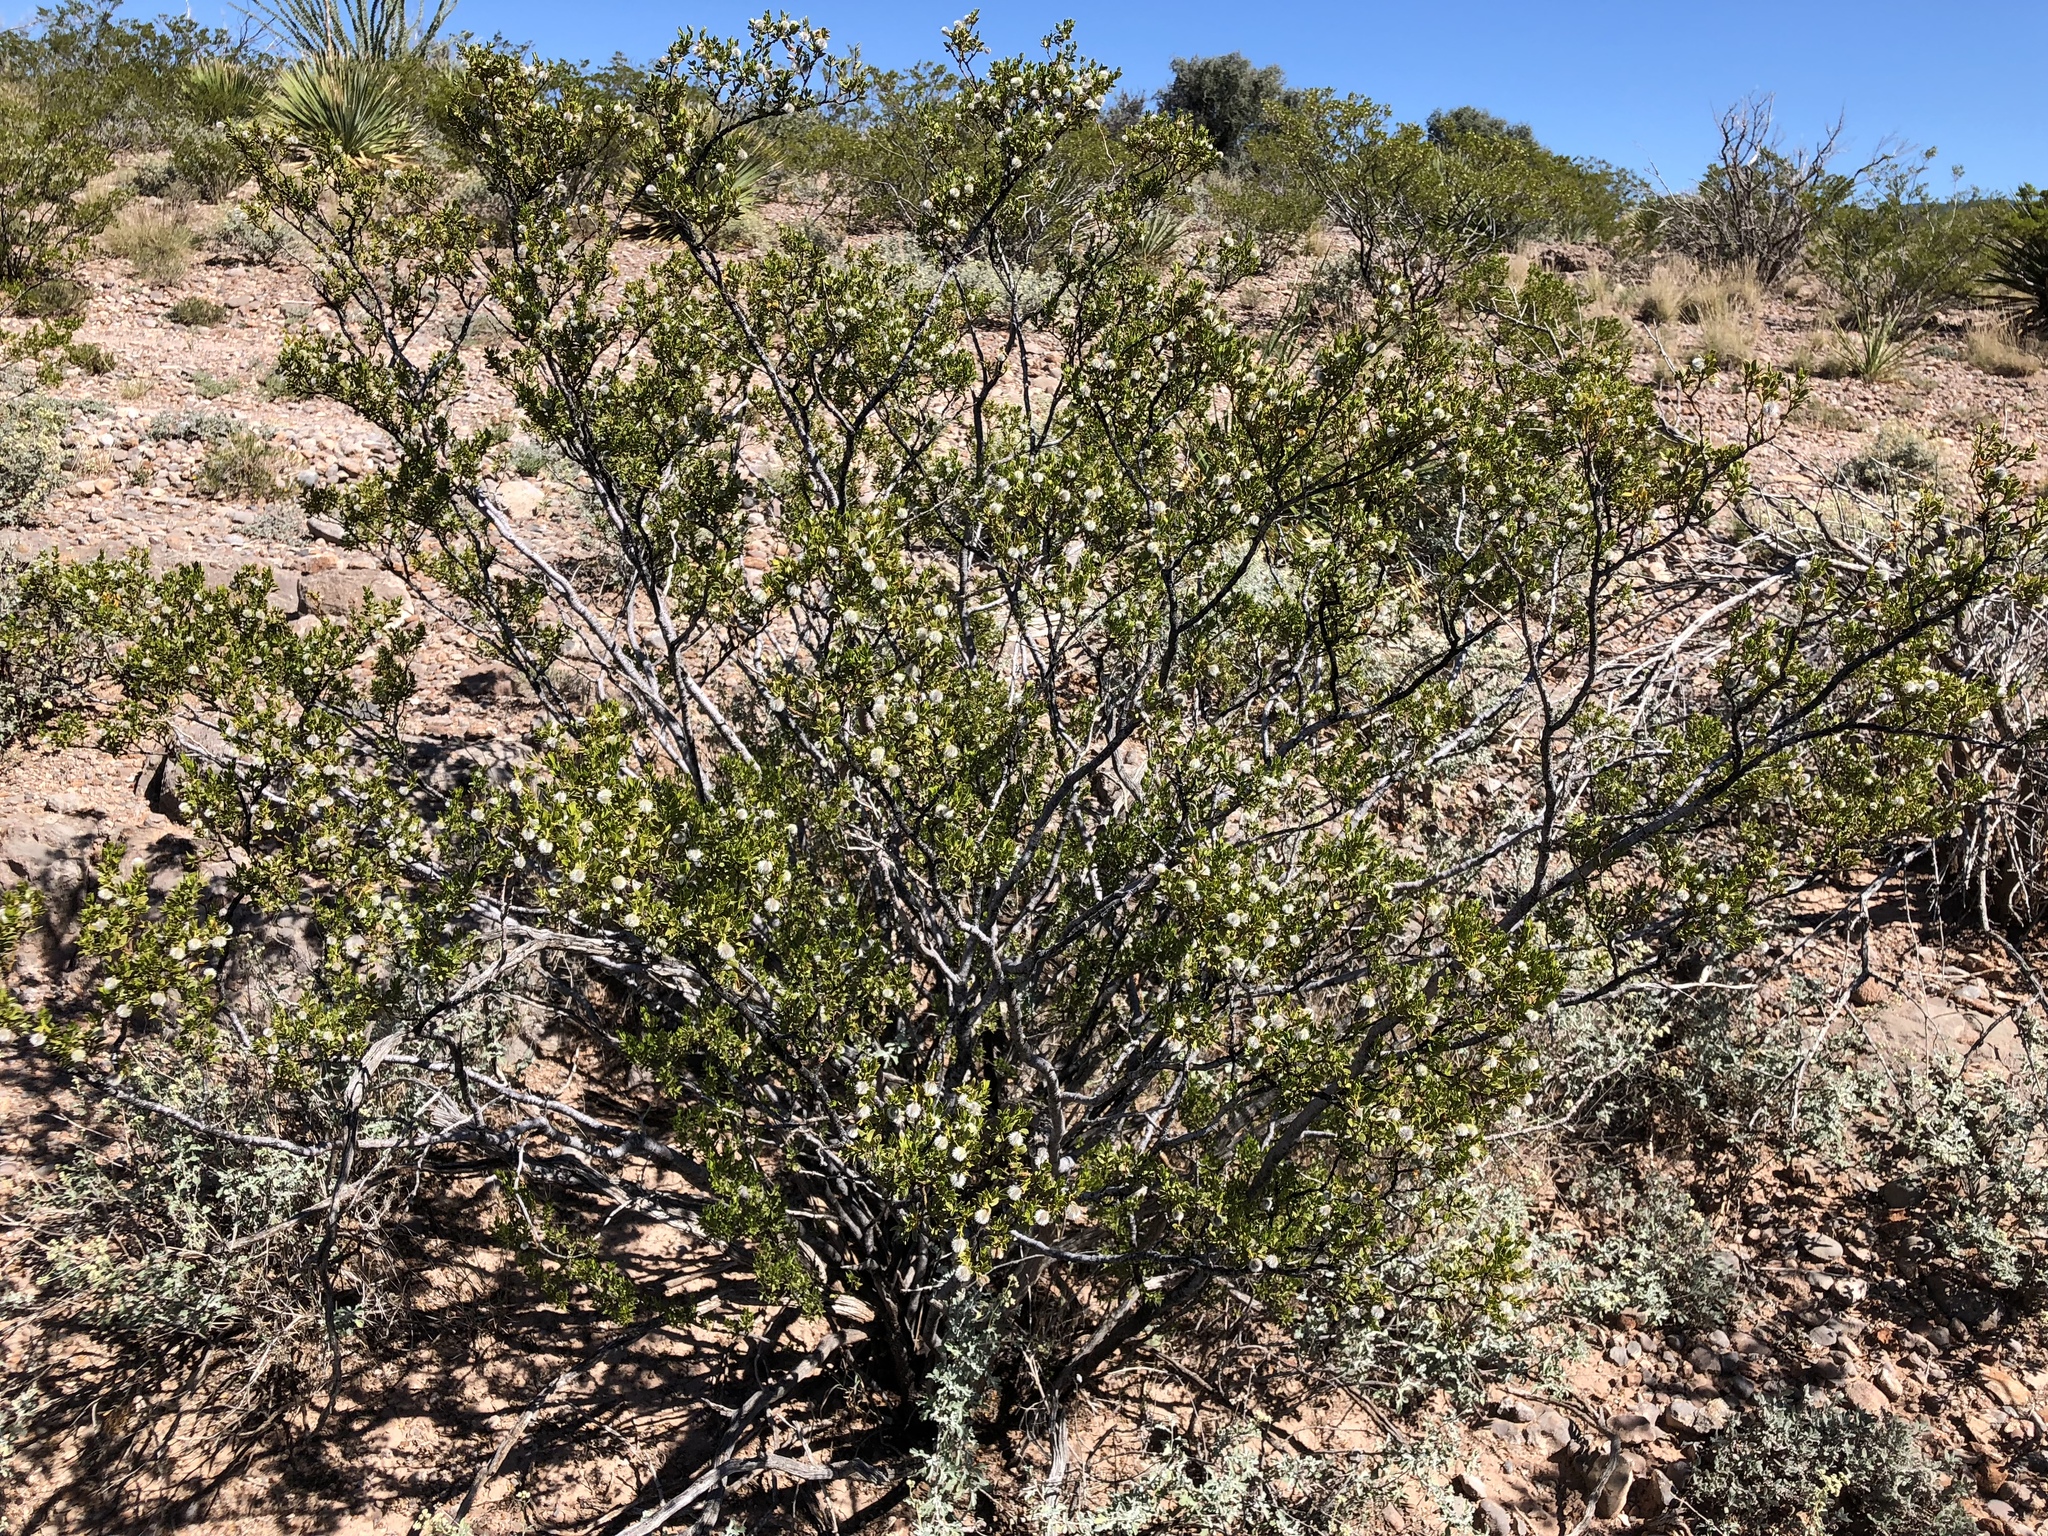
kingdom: Plantae
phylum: Tracheophyta
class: Magnoliopsida
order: Zygophyllales
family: Zygophyllaceae
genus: Larrea
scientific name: Larrea tridentata
